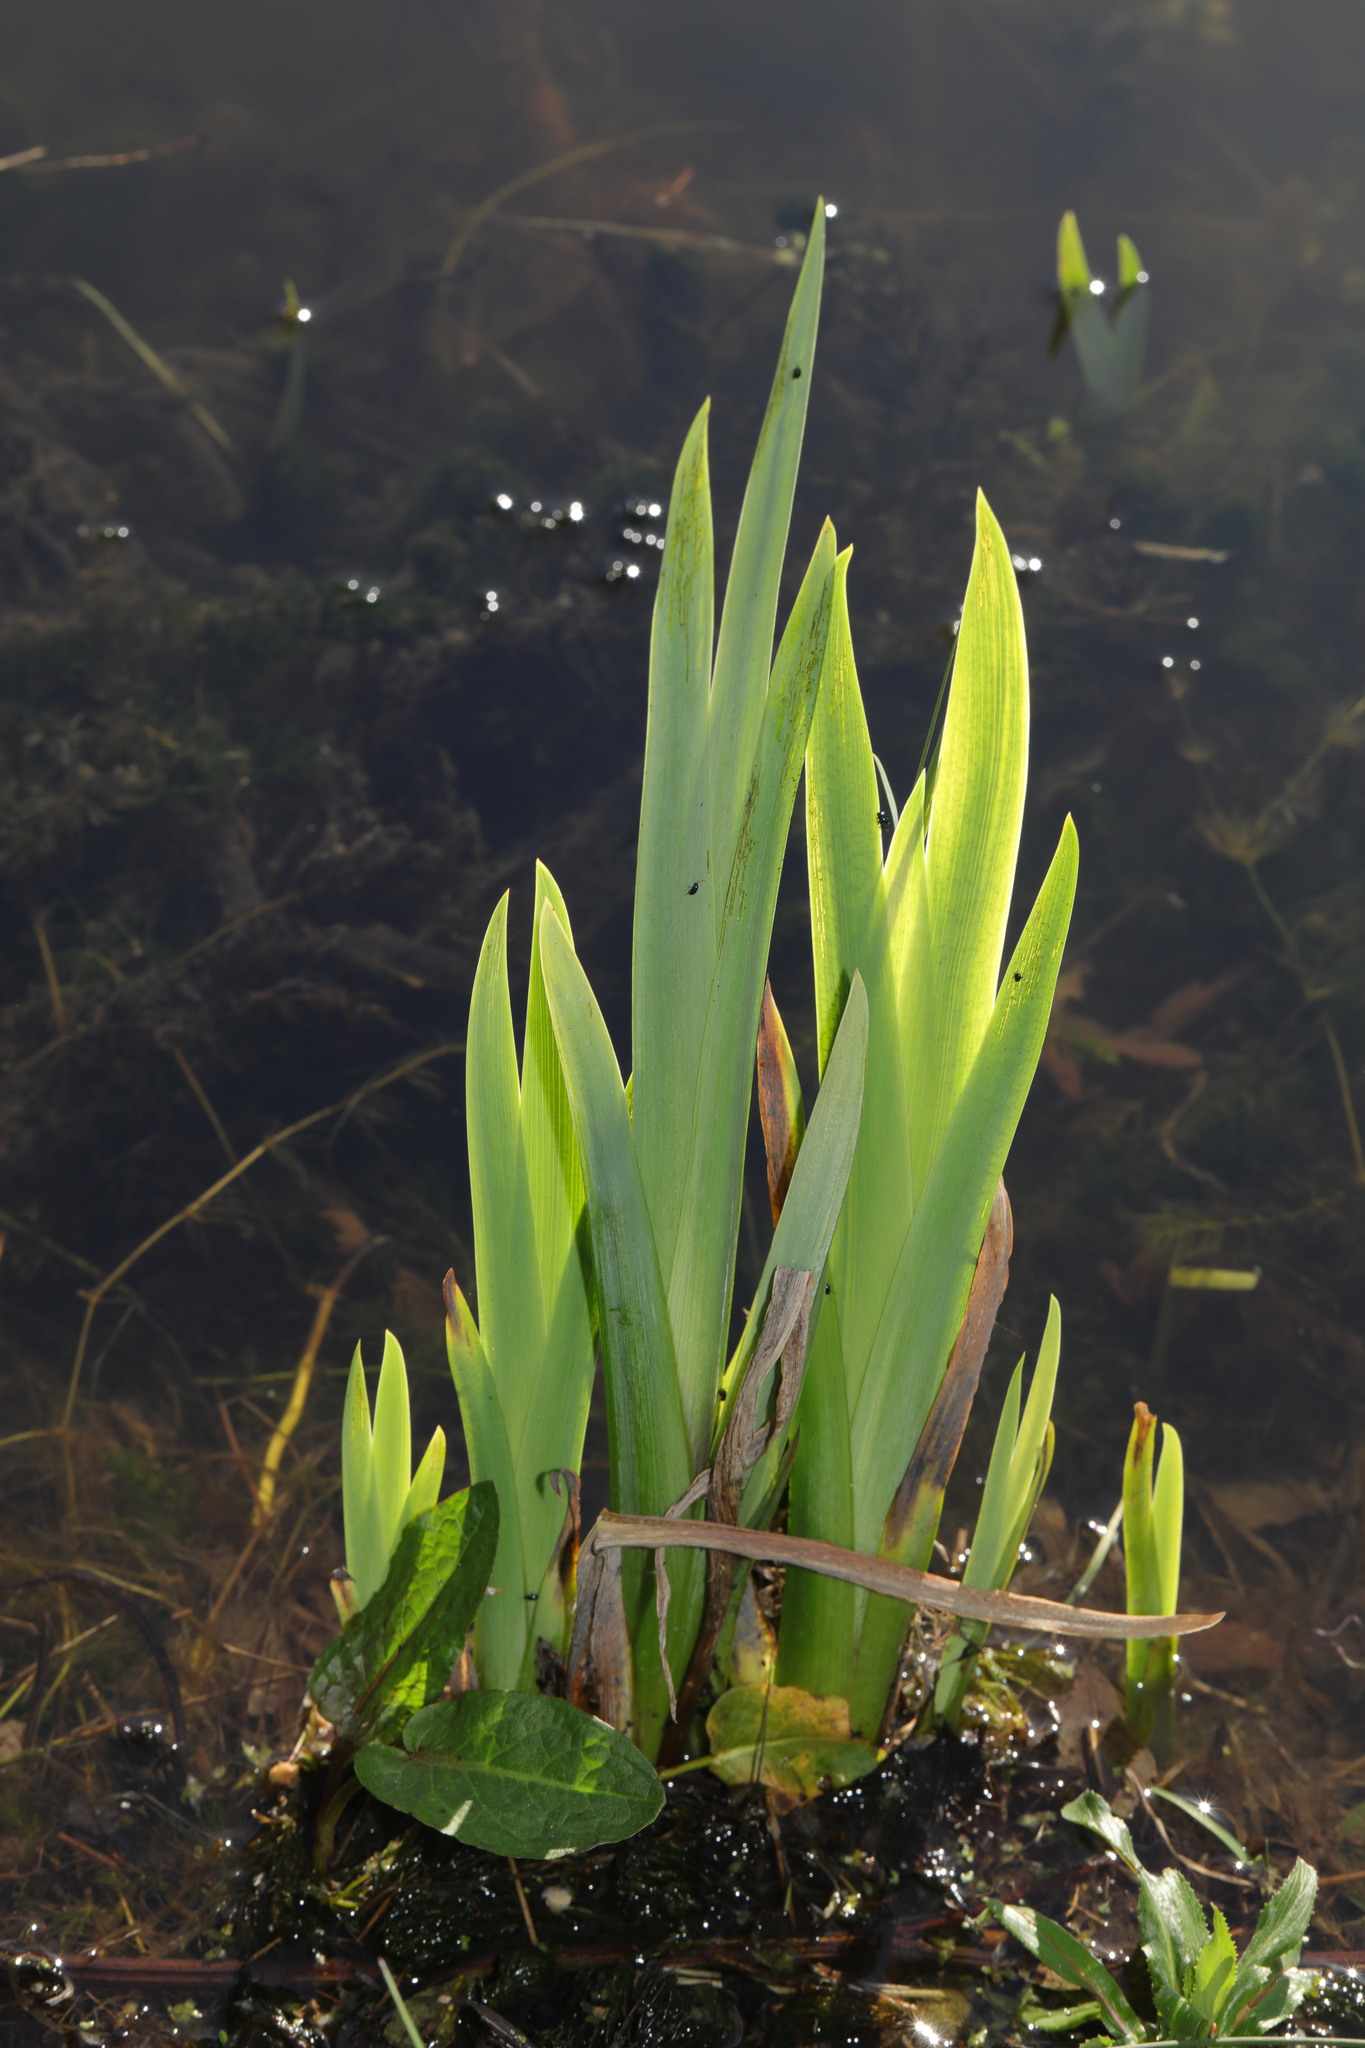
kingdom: Plantae
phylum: Tracheophyta
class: Liliopsida
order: Asparagales
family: Iridaceae
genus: Iris
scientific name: Iris pseudacorus
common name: Yellow flag
